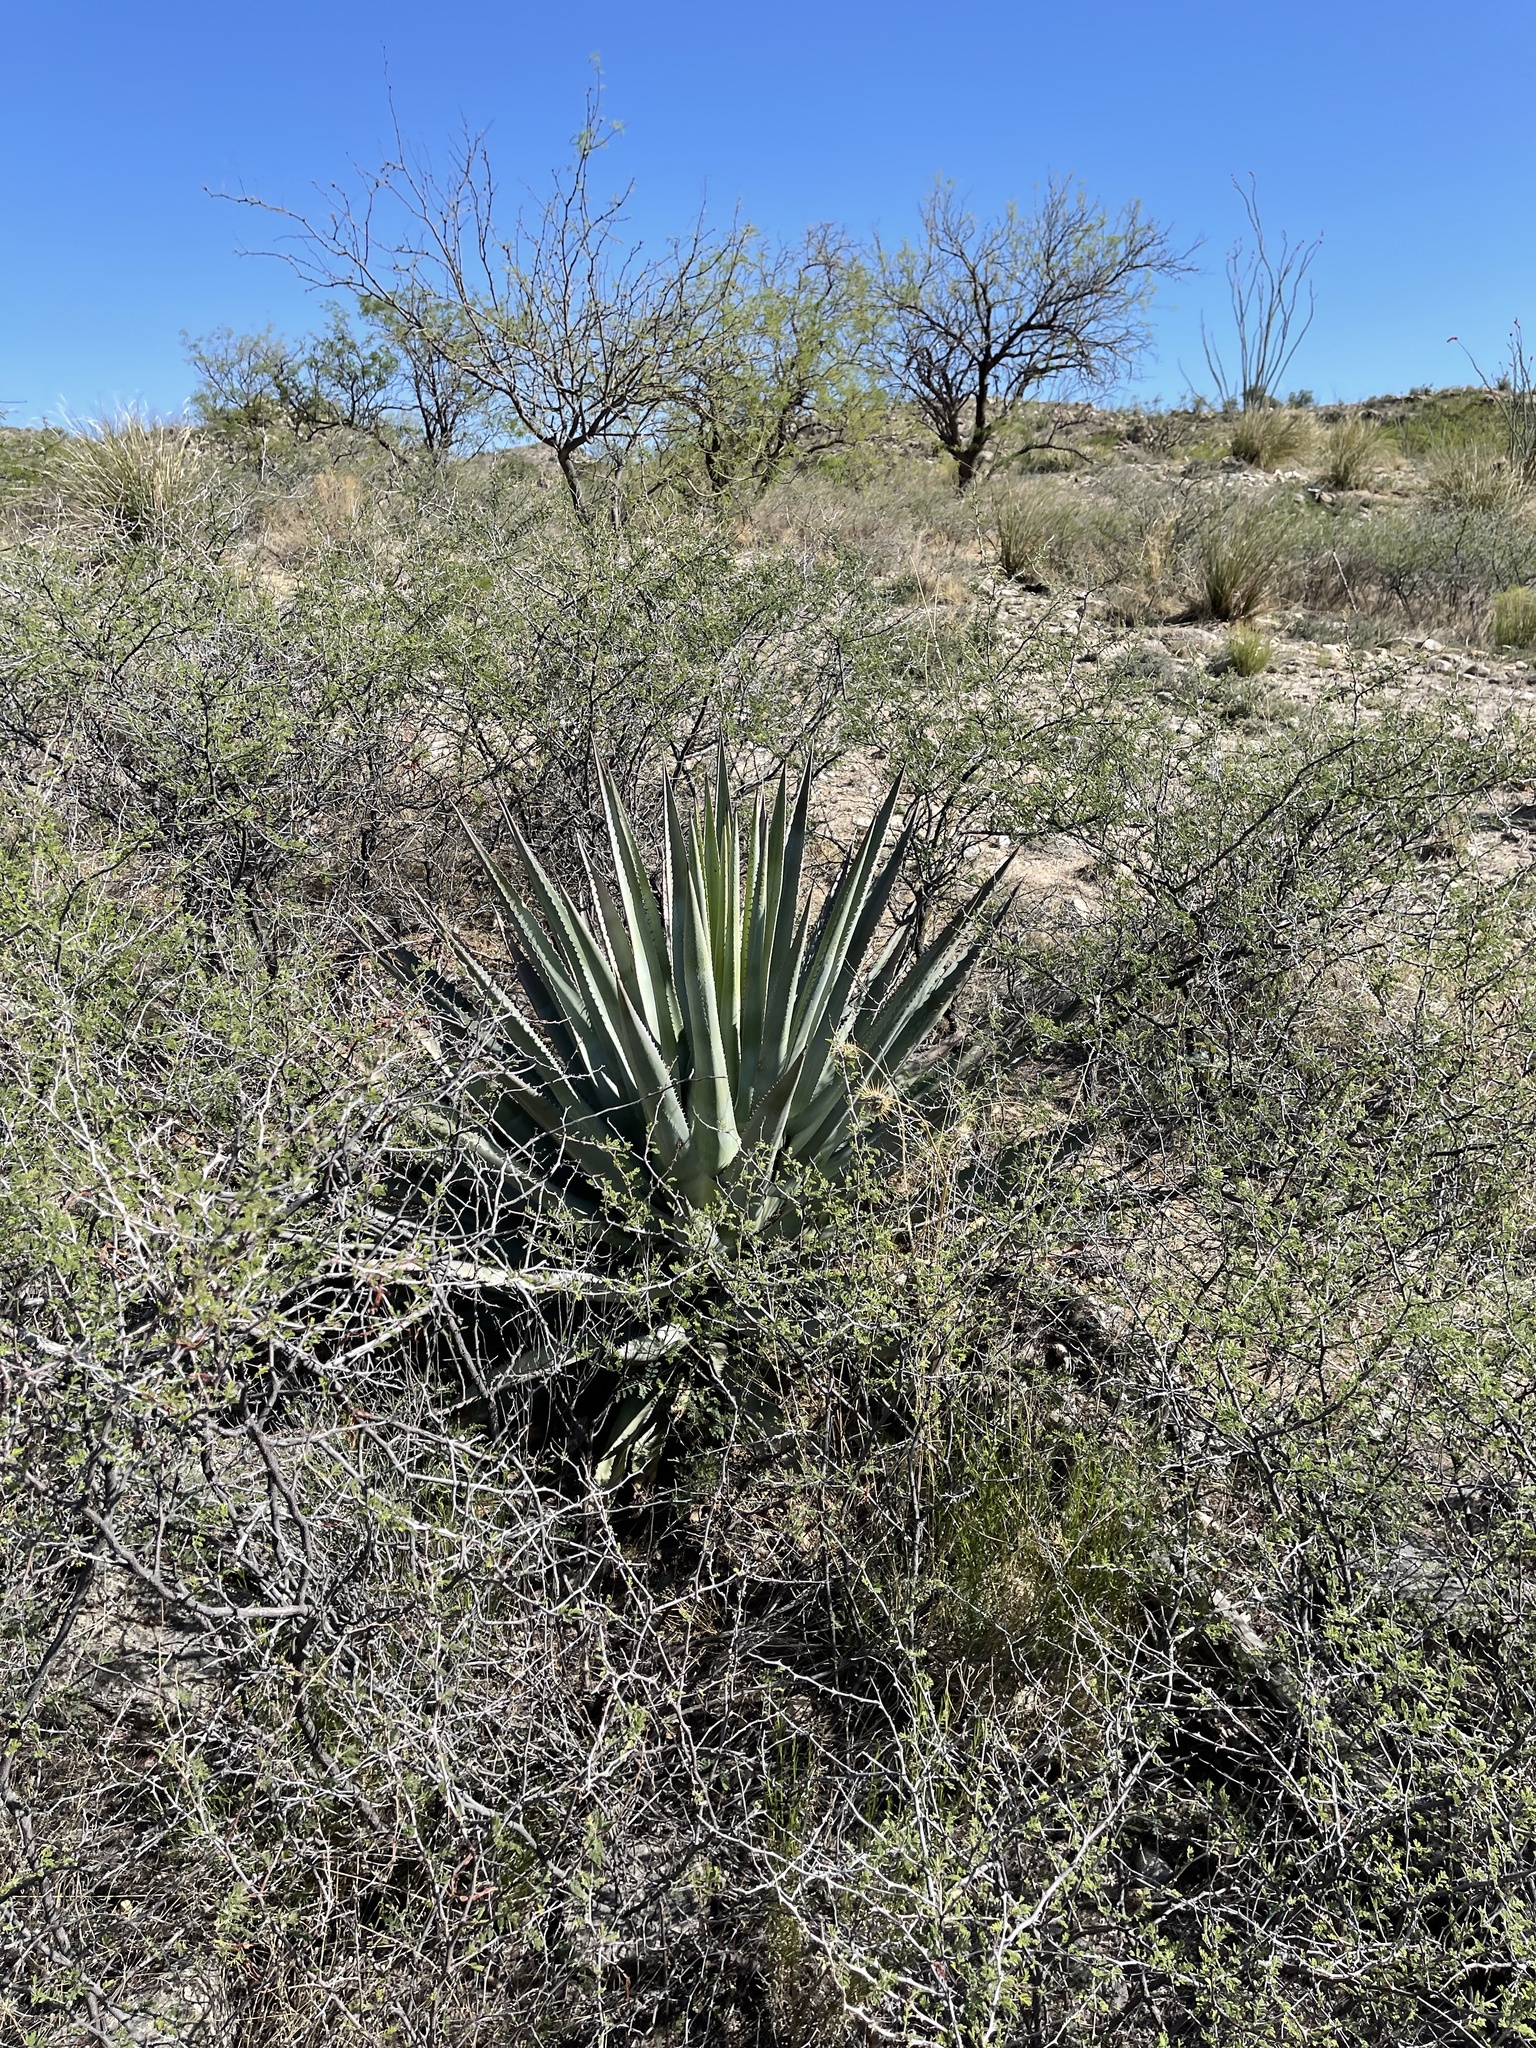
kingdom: Plantae
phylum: Tracheophyta
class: Liliopsida
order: Asparagales
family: Asparagaceae
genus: Agave
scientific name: Agave palmeri
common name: Palmer agave
